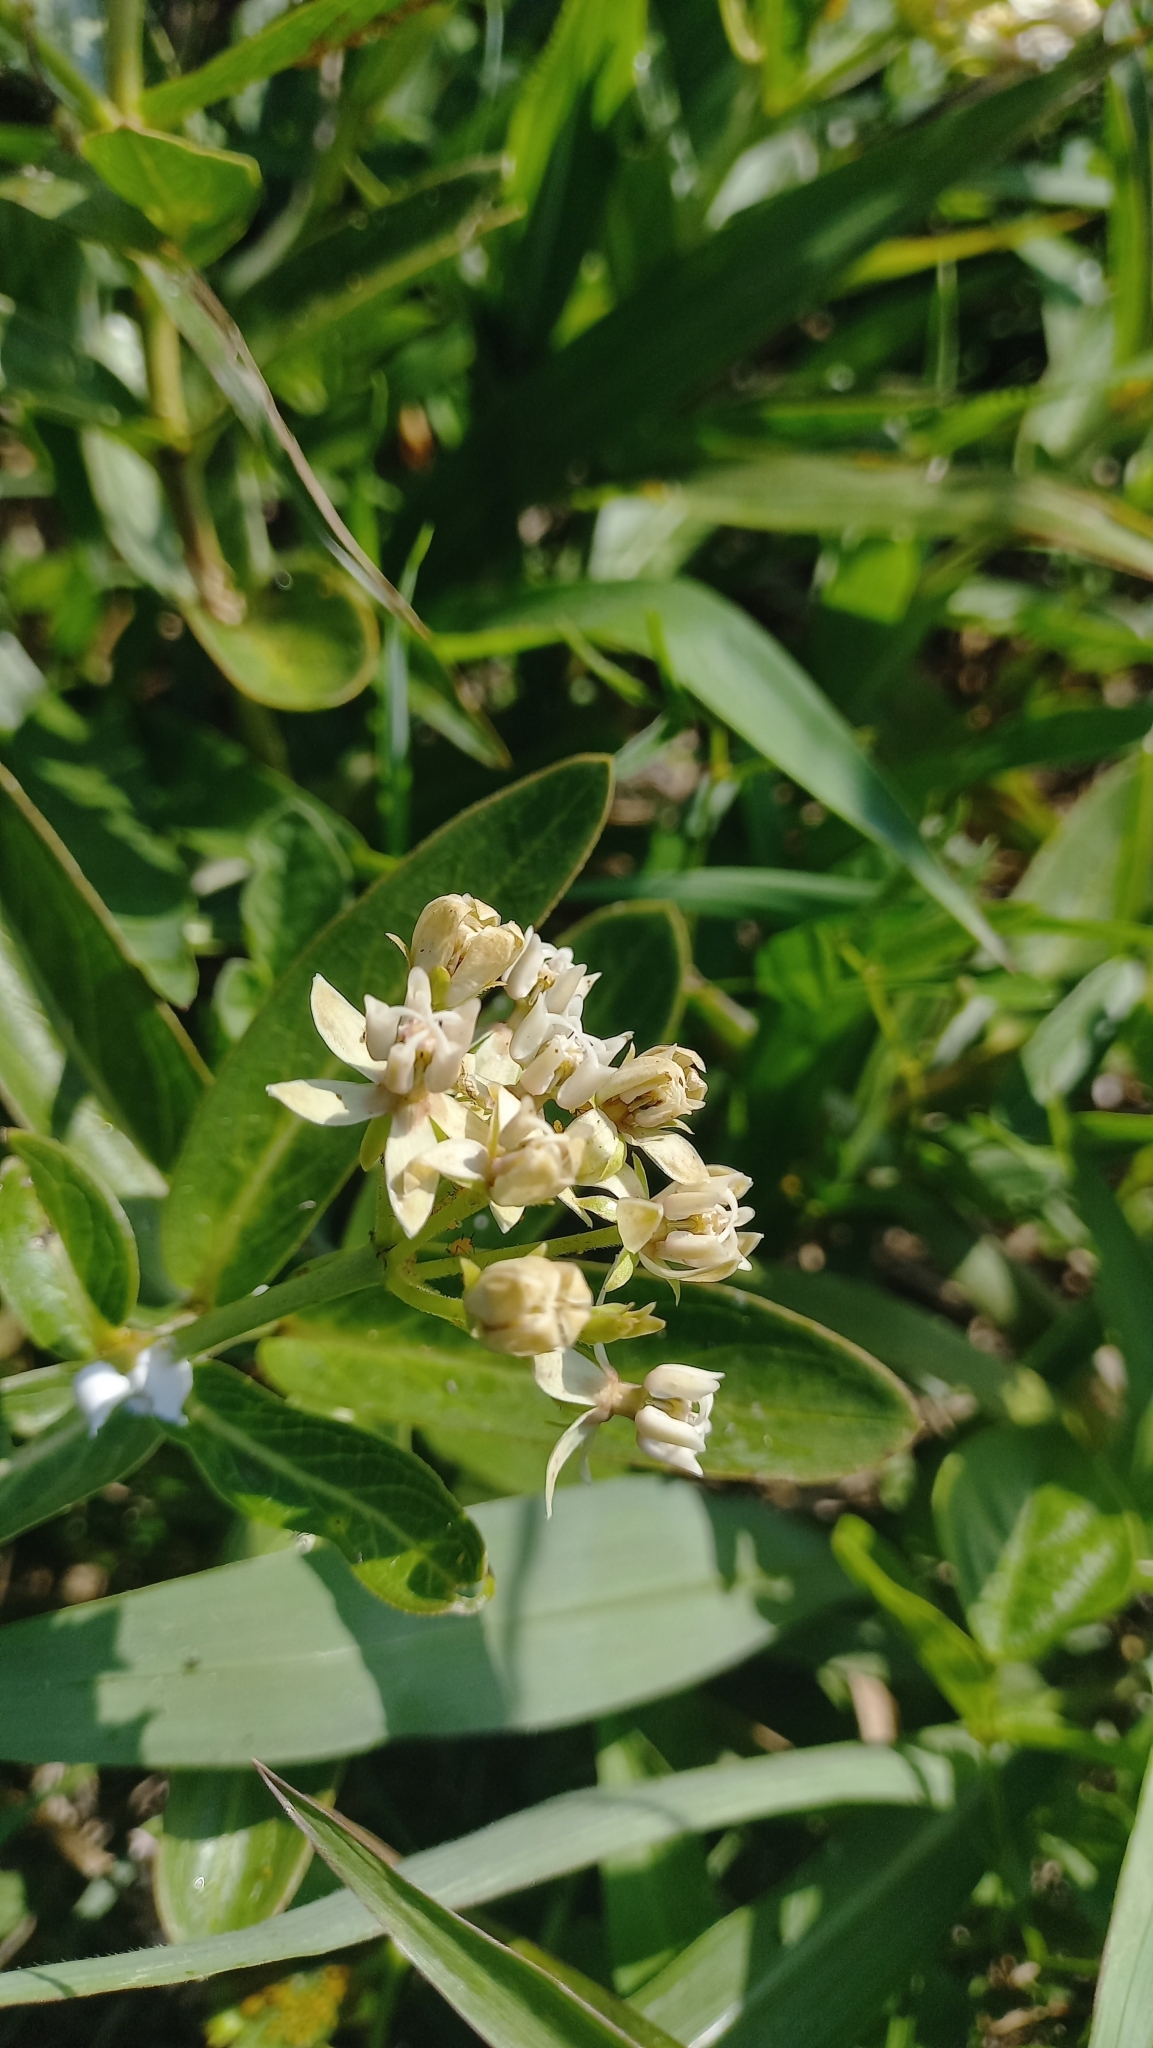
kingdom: Plantae
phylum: Tracheophyta
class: Magnoliopsida
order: Gentianales
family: Apocynaceae
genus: Asclepias
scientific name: Asclepias mellodora
